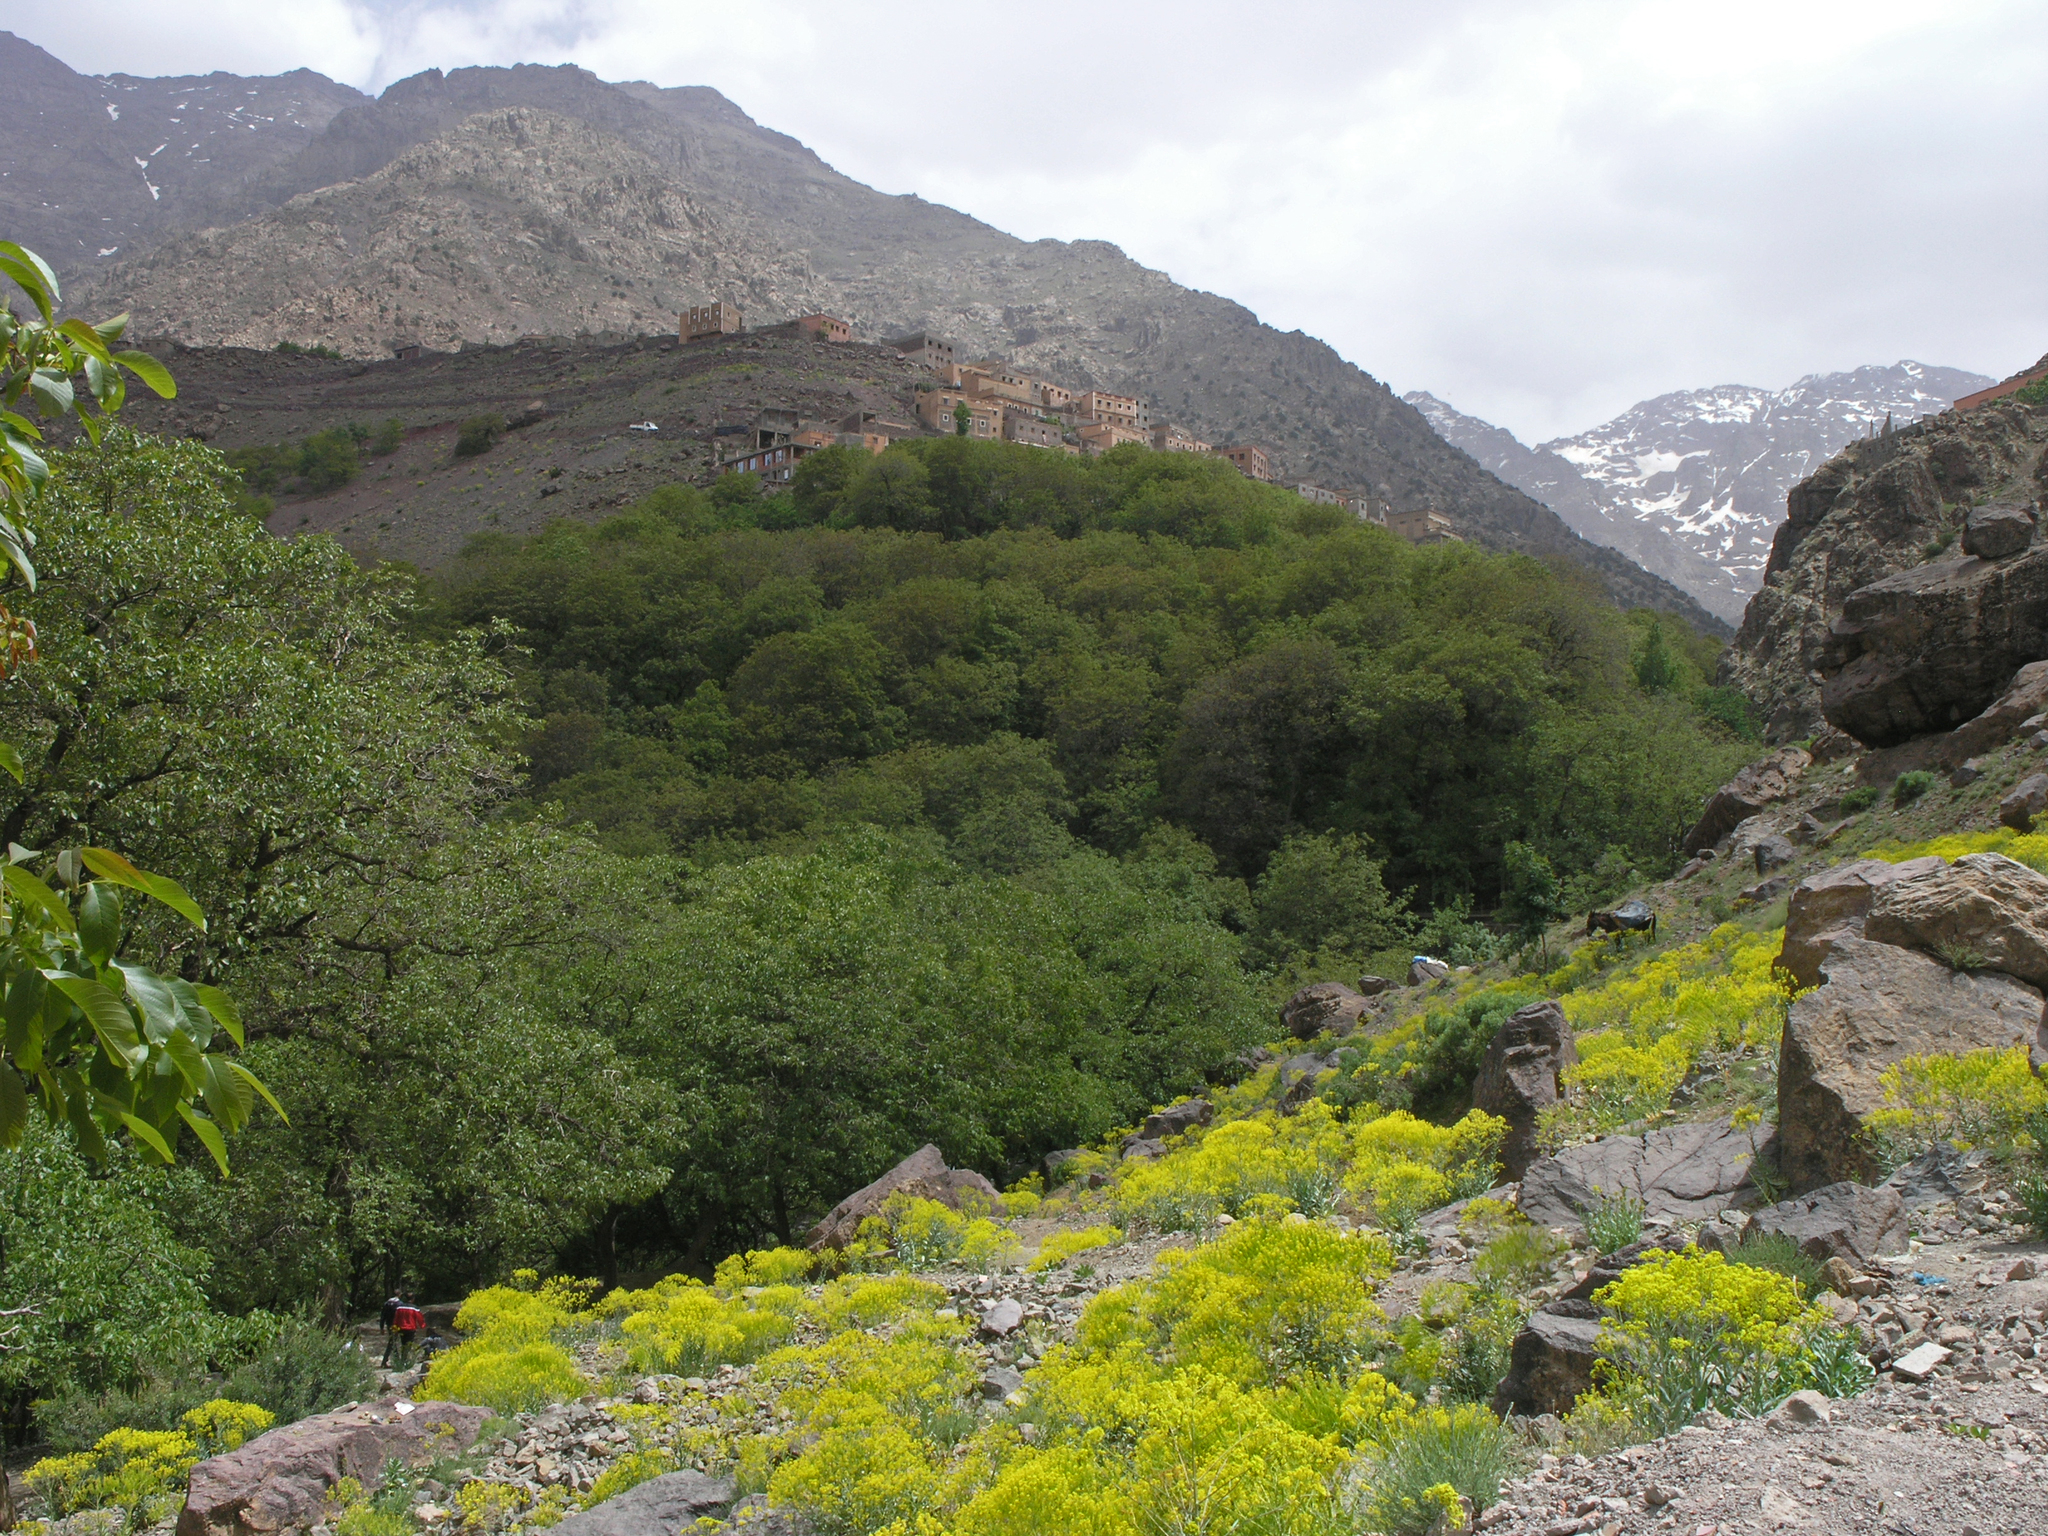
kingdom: Plantae
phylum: Tracheophyta
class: Magnoliopsida
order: Brassicales
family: Brassicaceae
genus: Isatis
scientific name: Isatis tinctoria
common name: Woad
